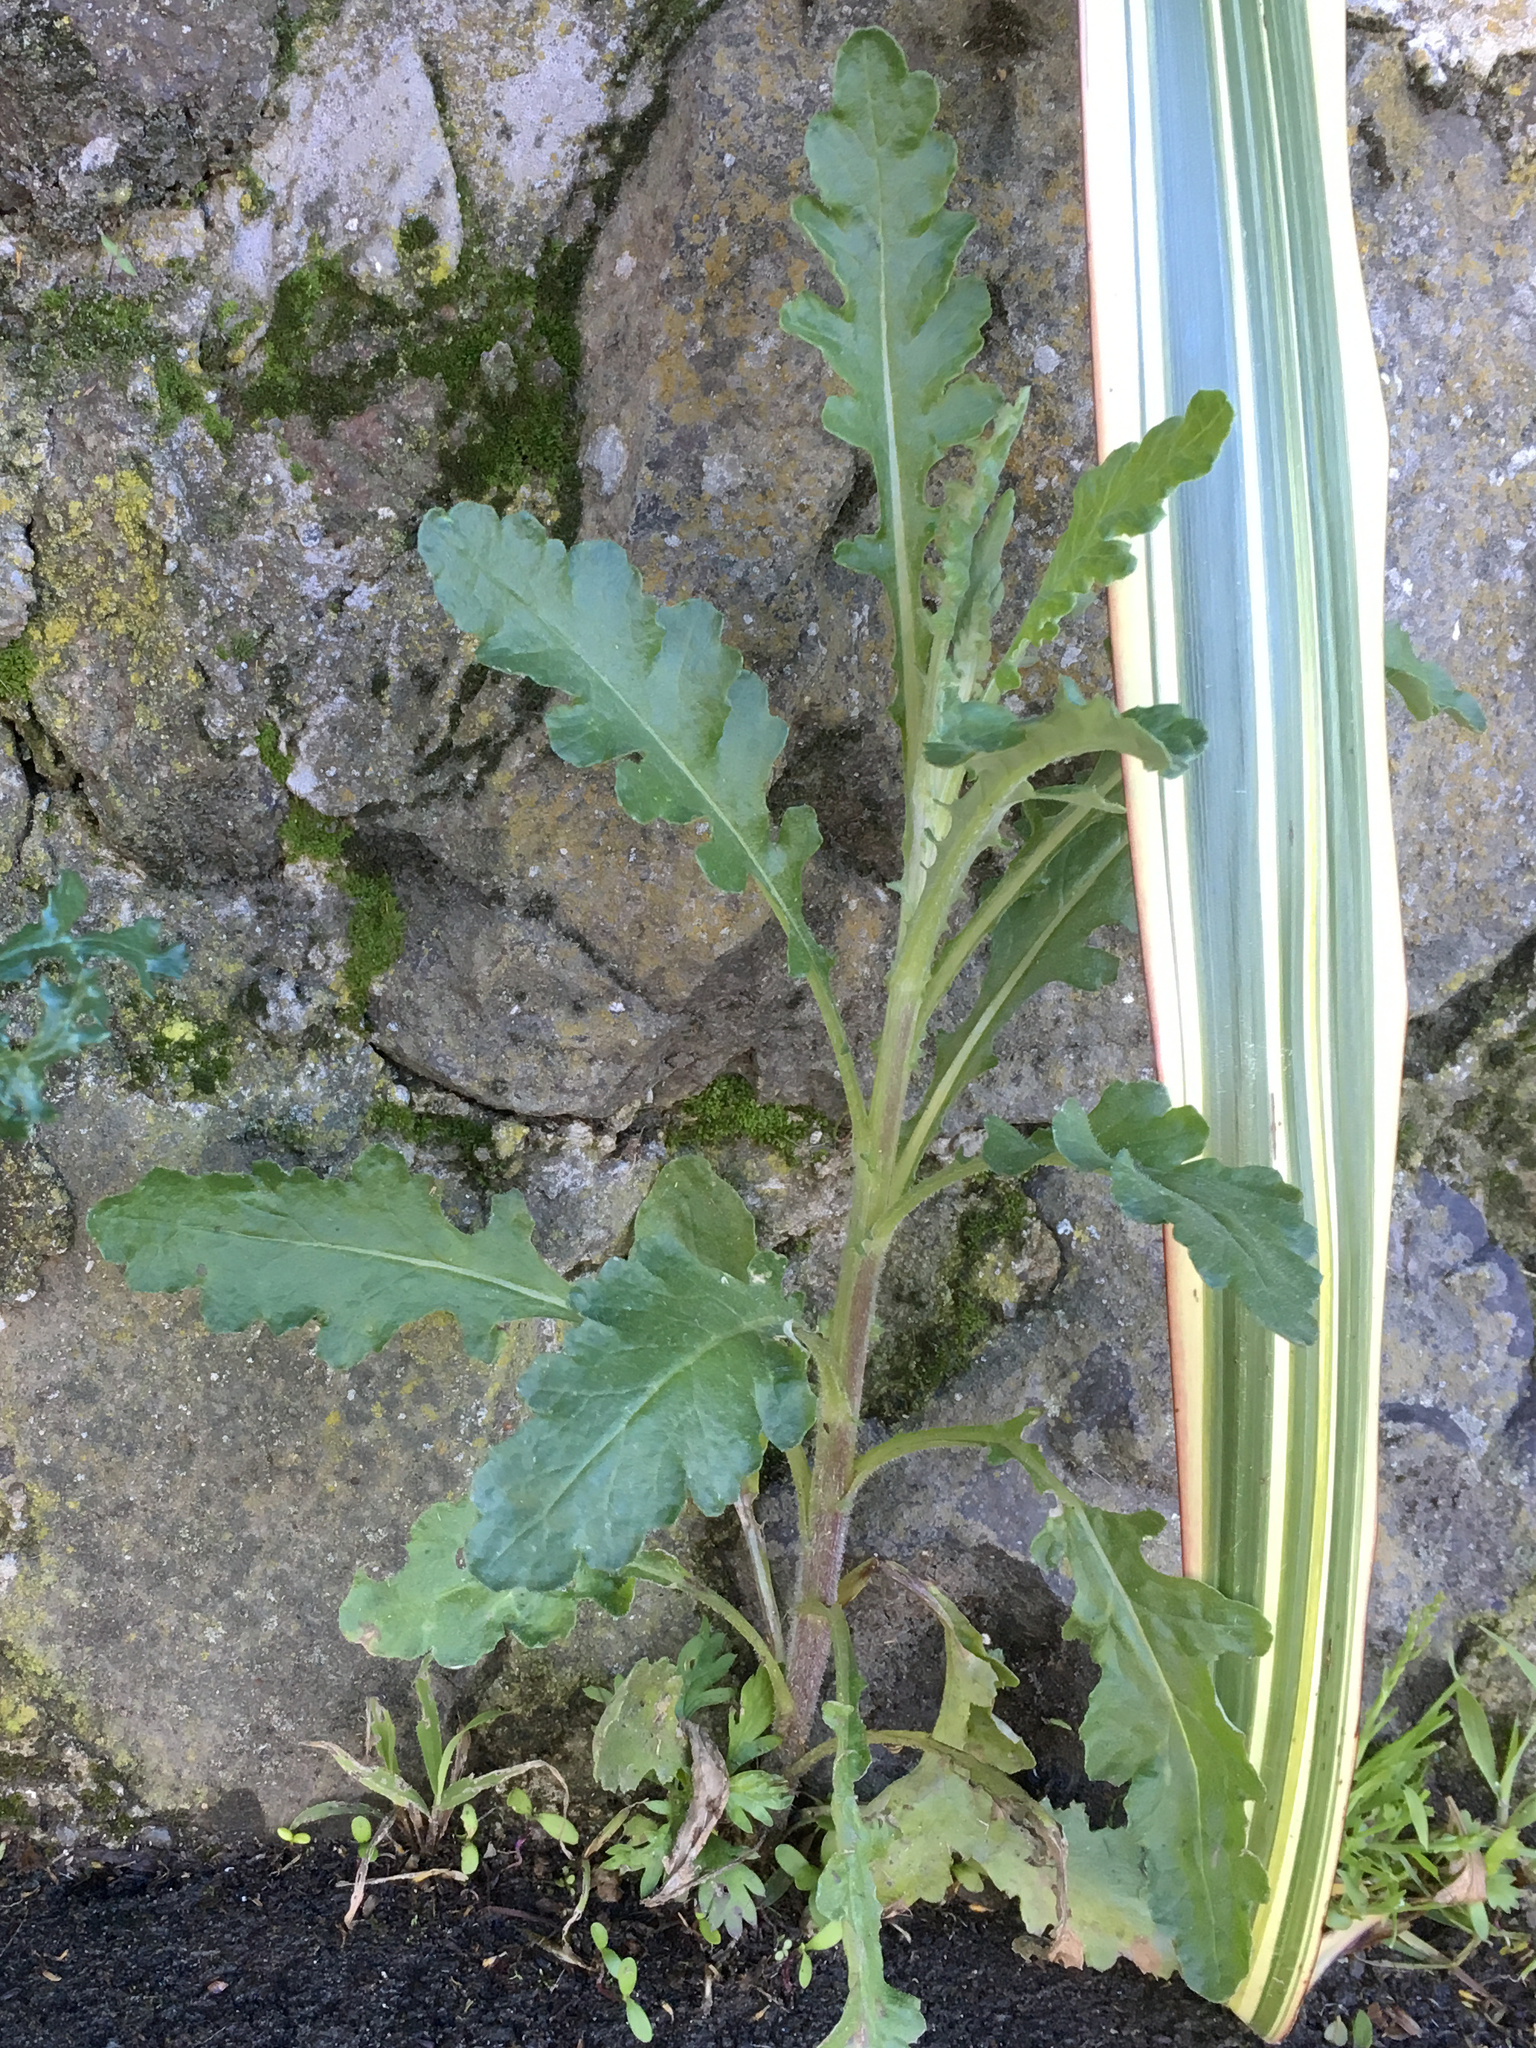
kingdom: Plantae
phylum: Tracheophyta
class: Magnoliopsida
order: Asterales
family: Asteraceae
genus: Senecio
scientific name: Senecio glomeratus
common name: Cutleaf burnweed
